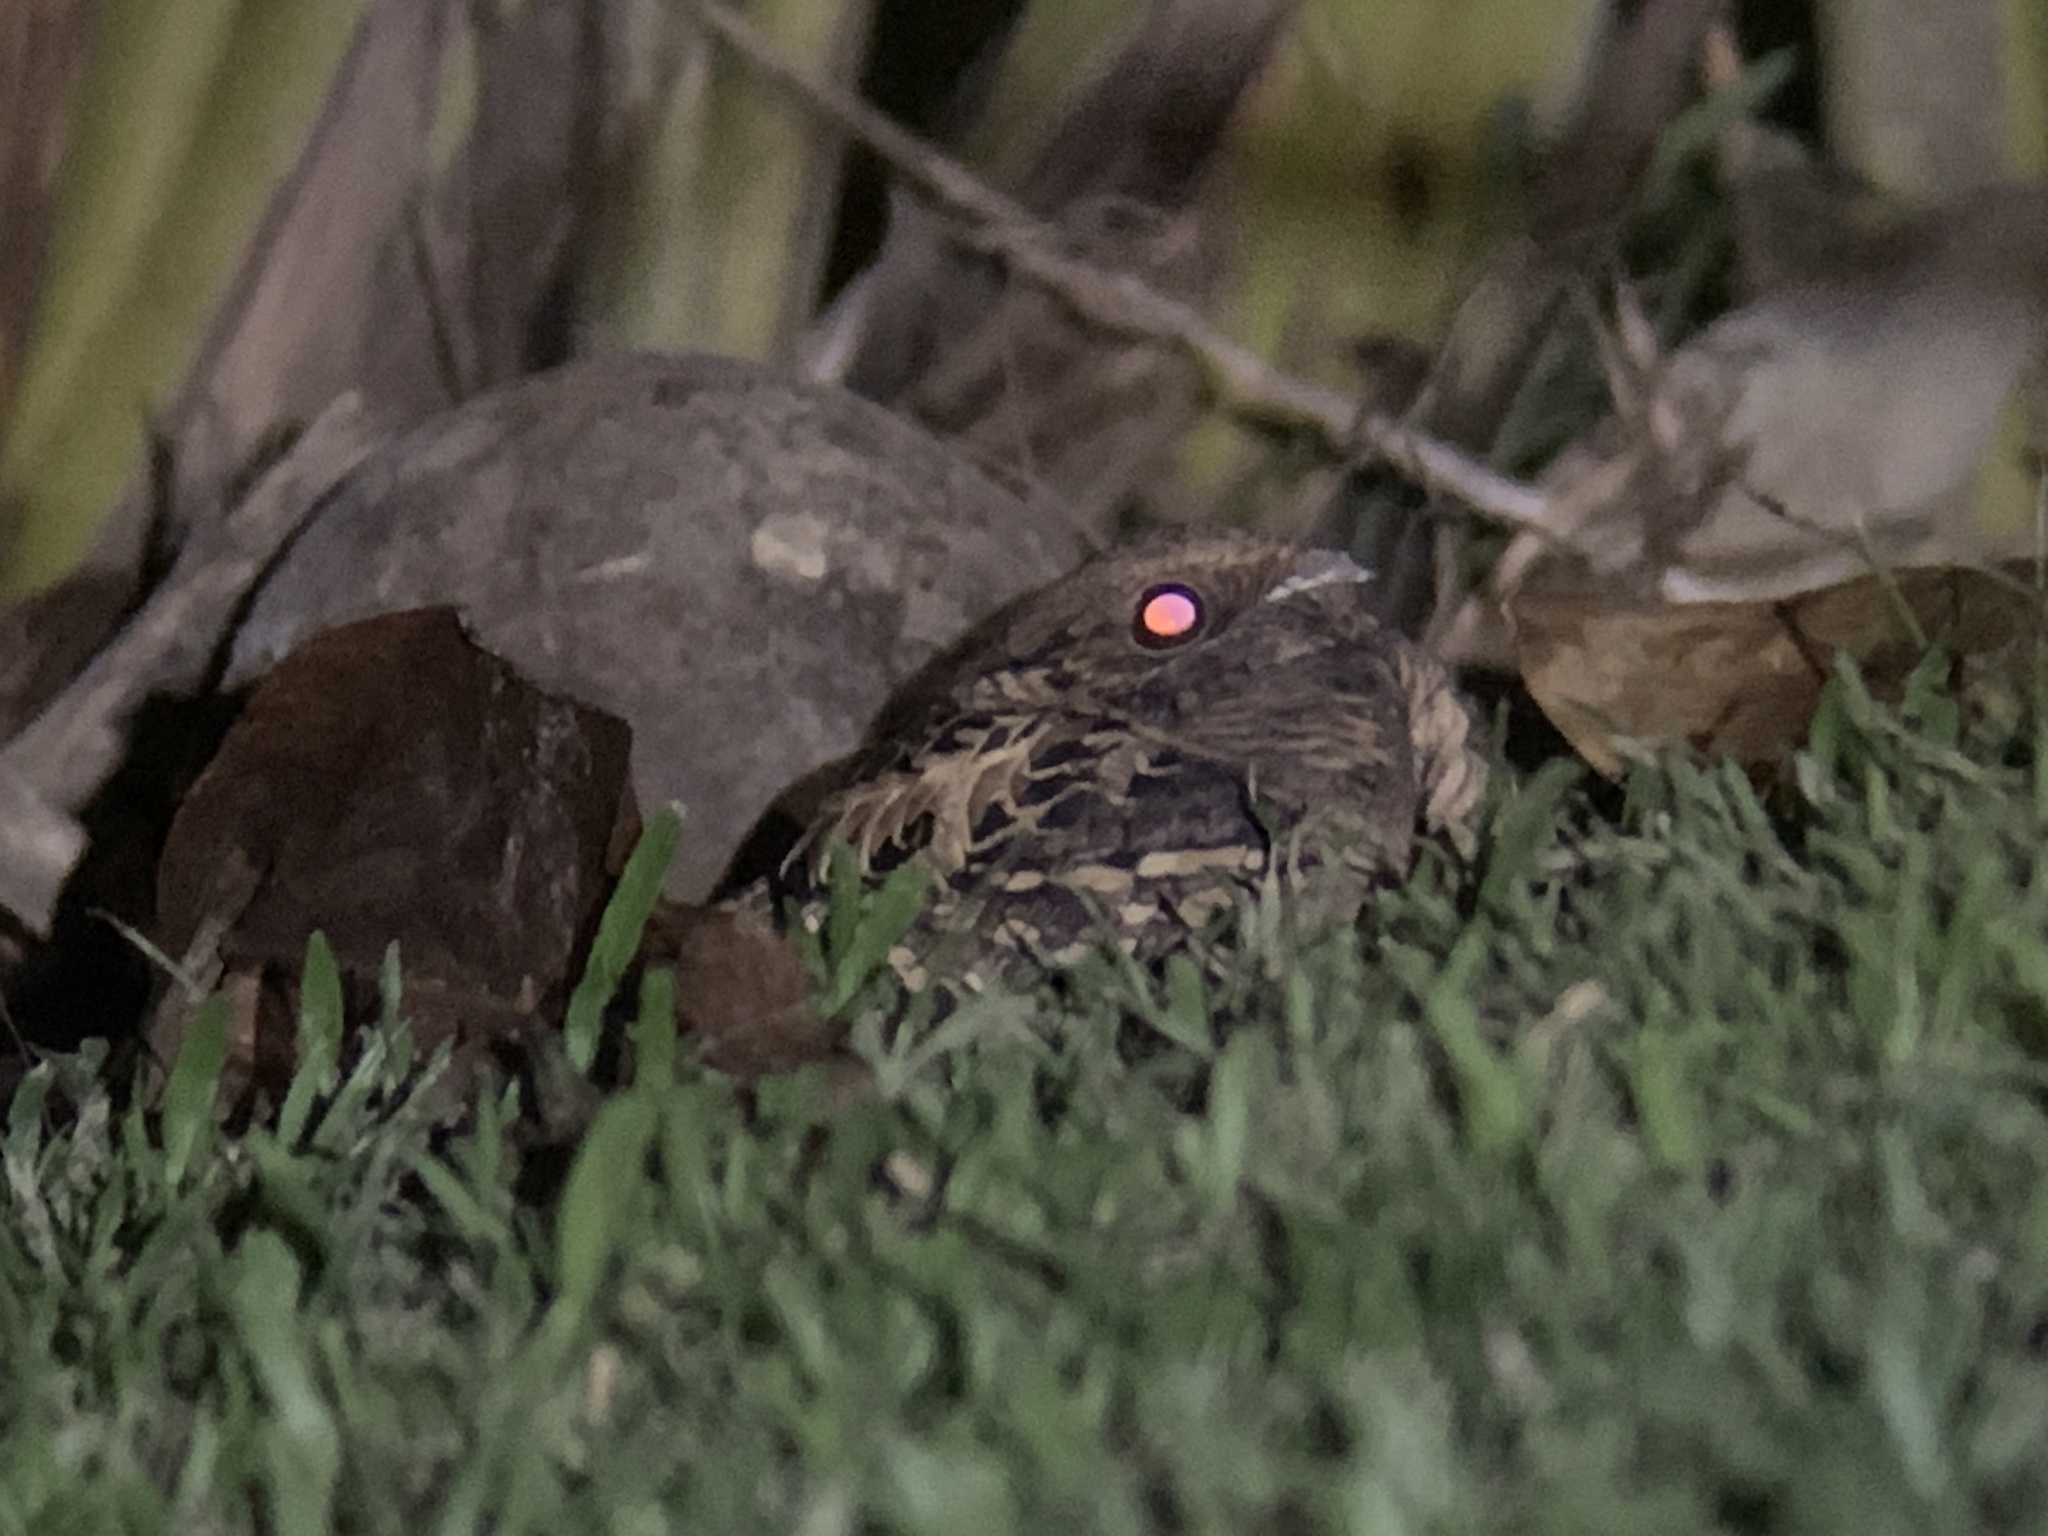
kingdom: Animalia
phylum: Chordata
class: Aves
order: Caprimulgiformes
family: Caprimulgidae
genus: Nyctidromus
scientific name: Nyctidromus albicollis
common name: Pauraque
